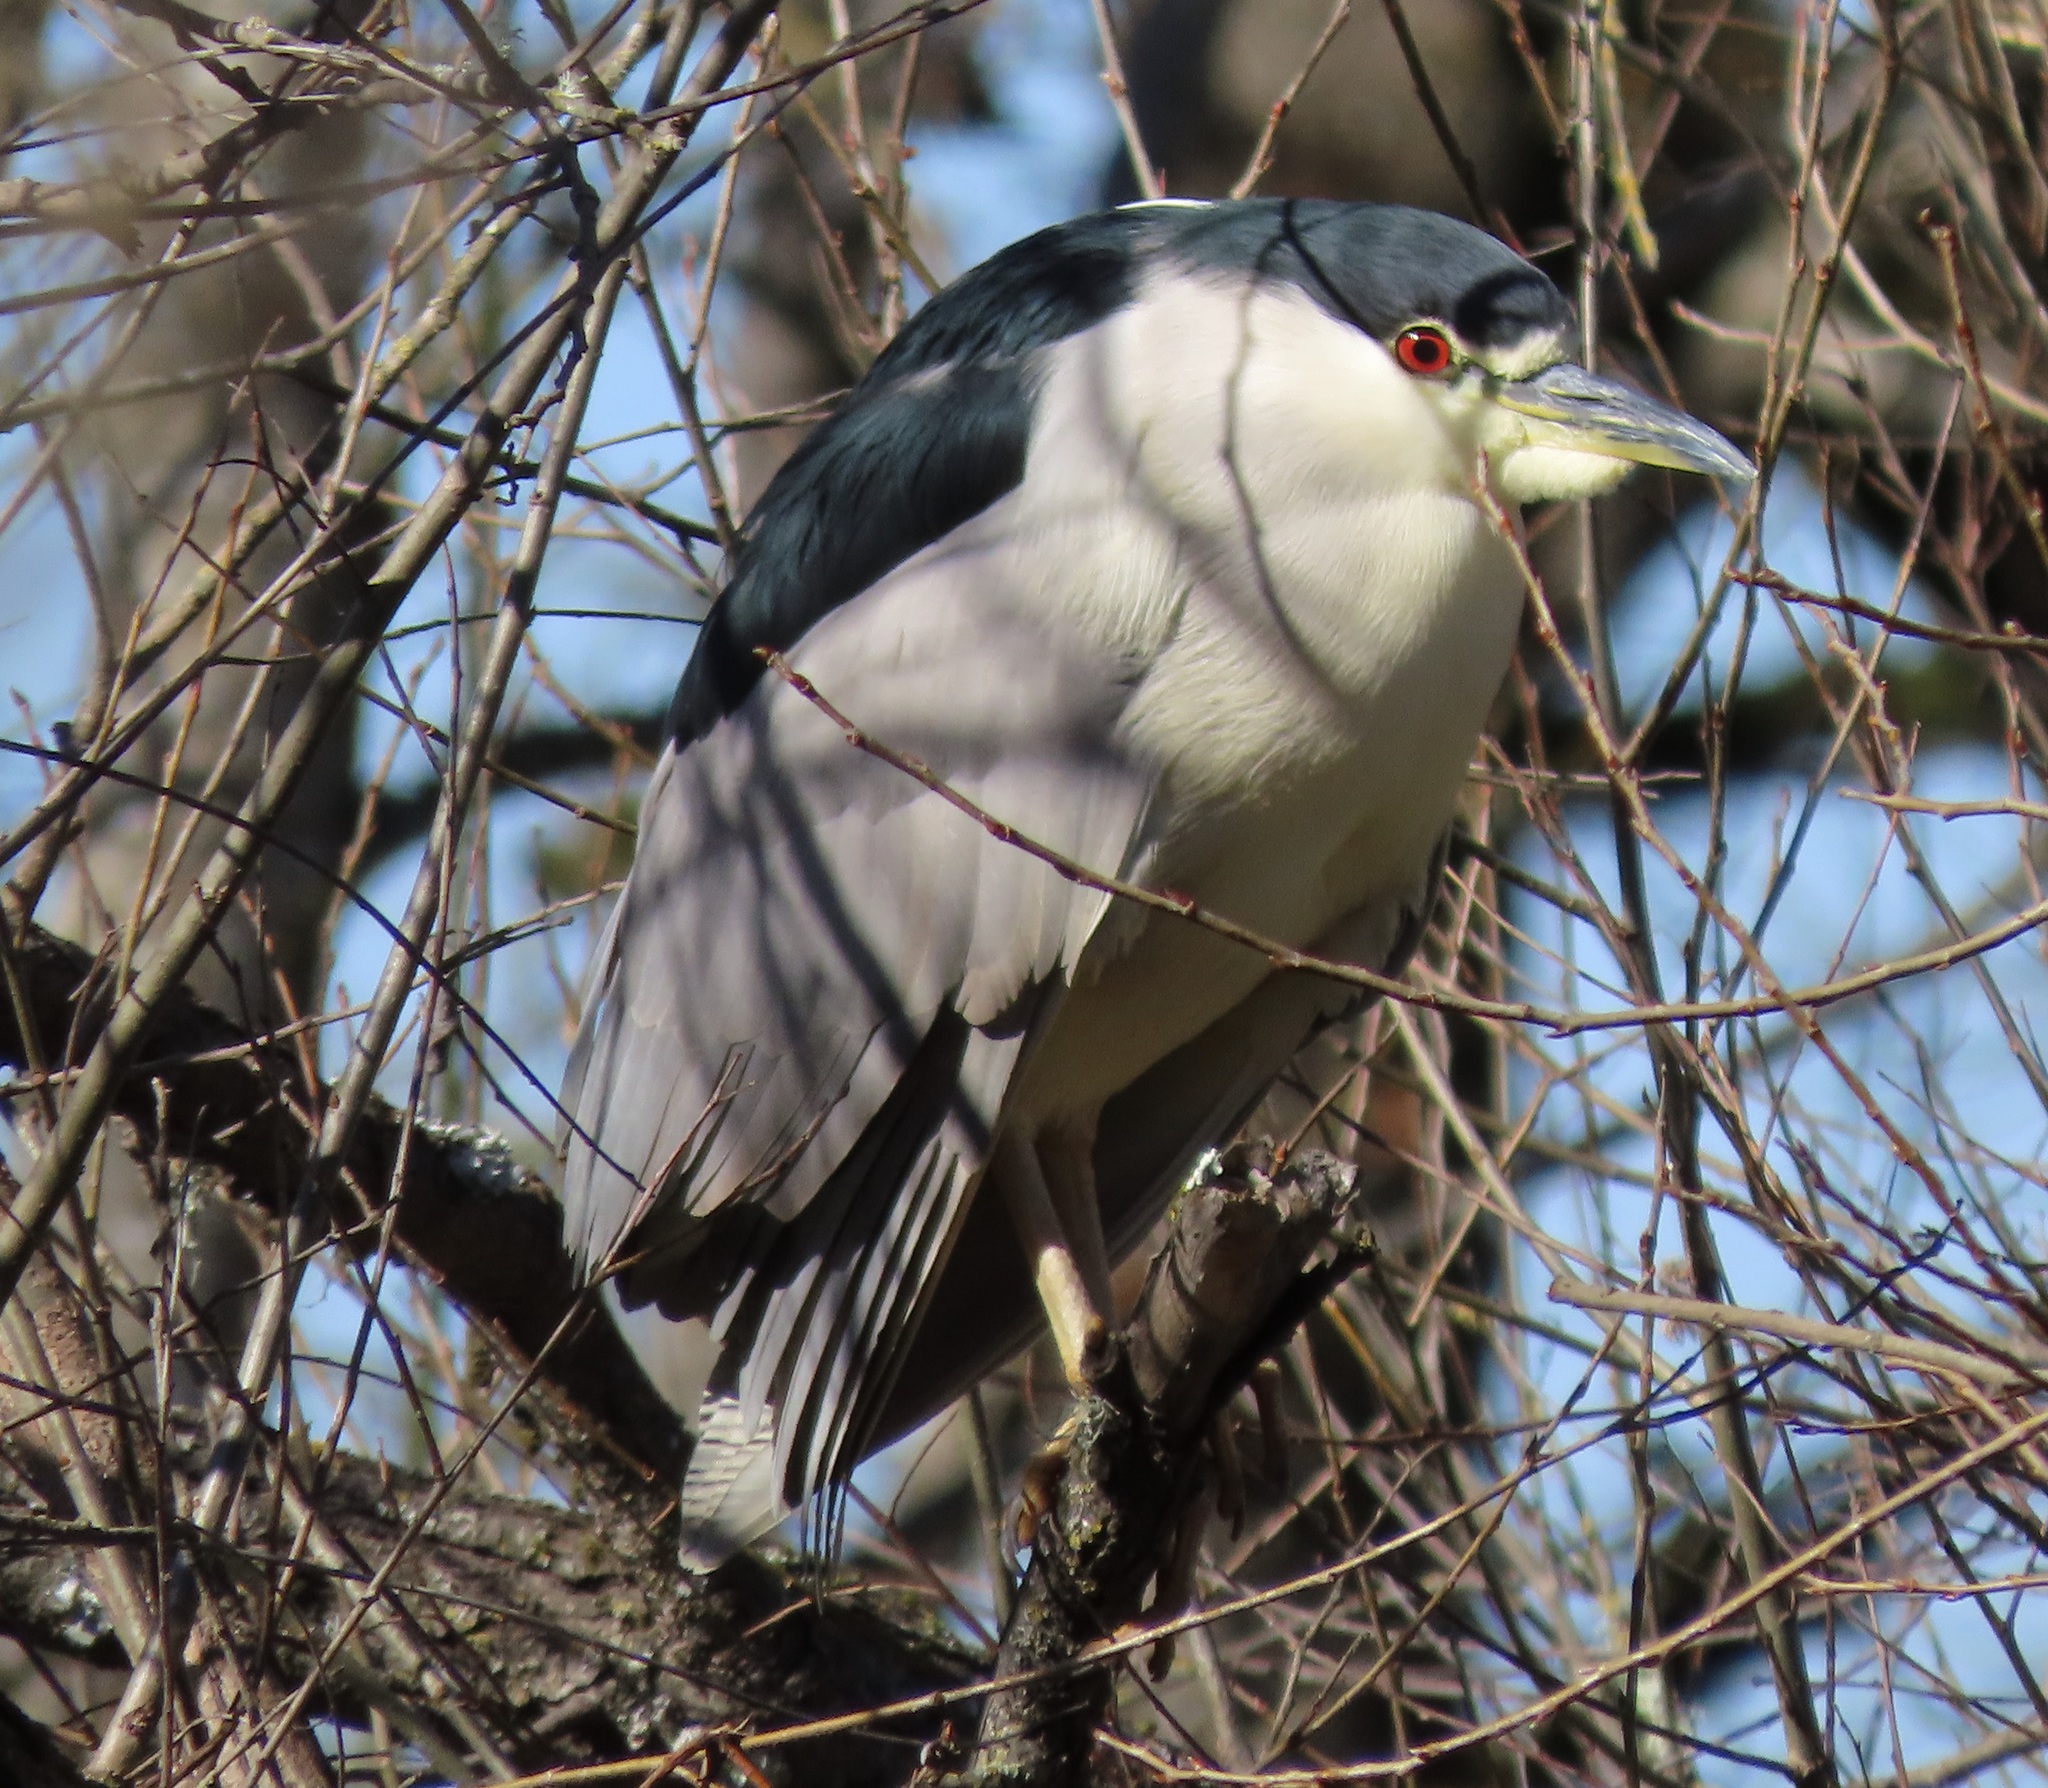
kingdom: Animalia
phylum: Chordata
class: Aves
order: Pelecaniformes
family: Ardeidae
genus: Nycticorax
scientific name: Nycticorax nycticorax
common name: Black-crowned night heron
